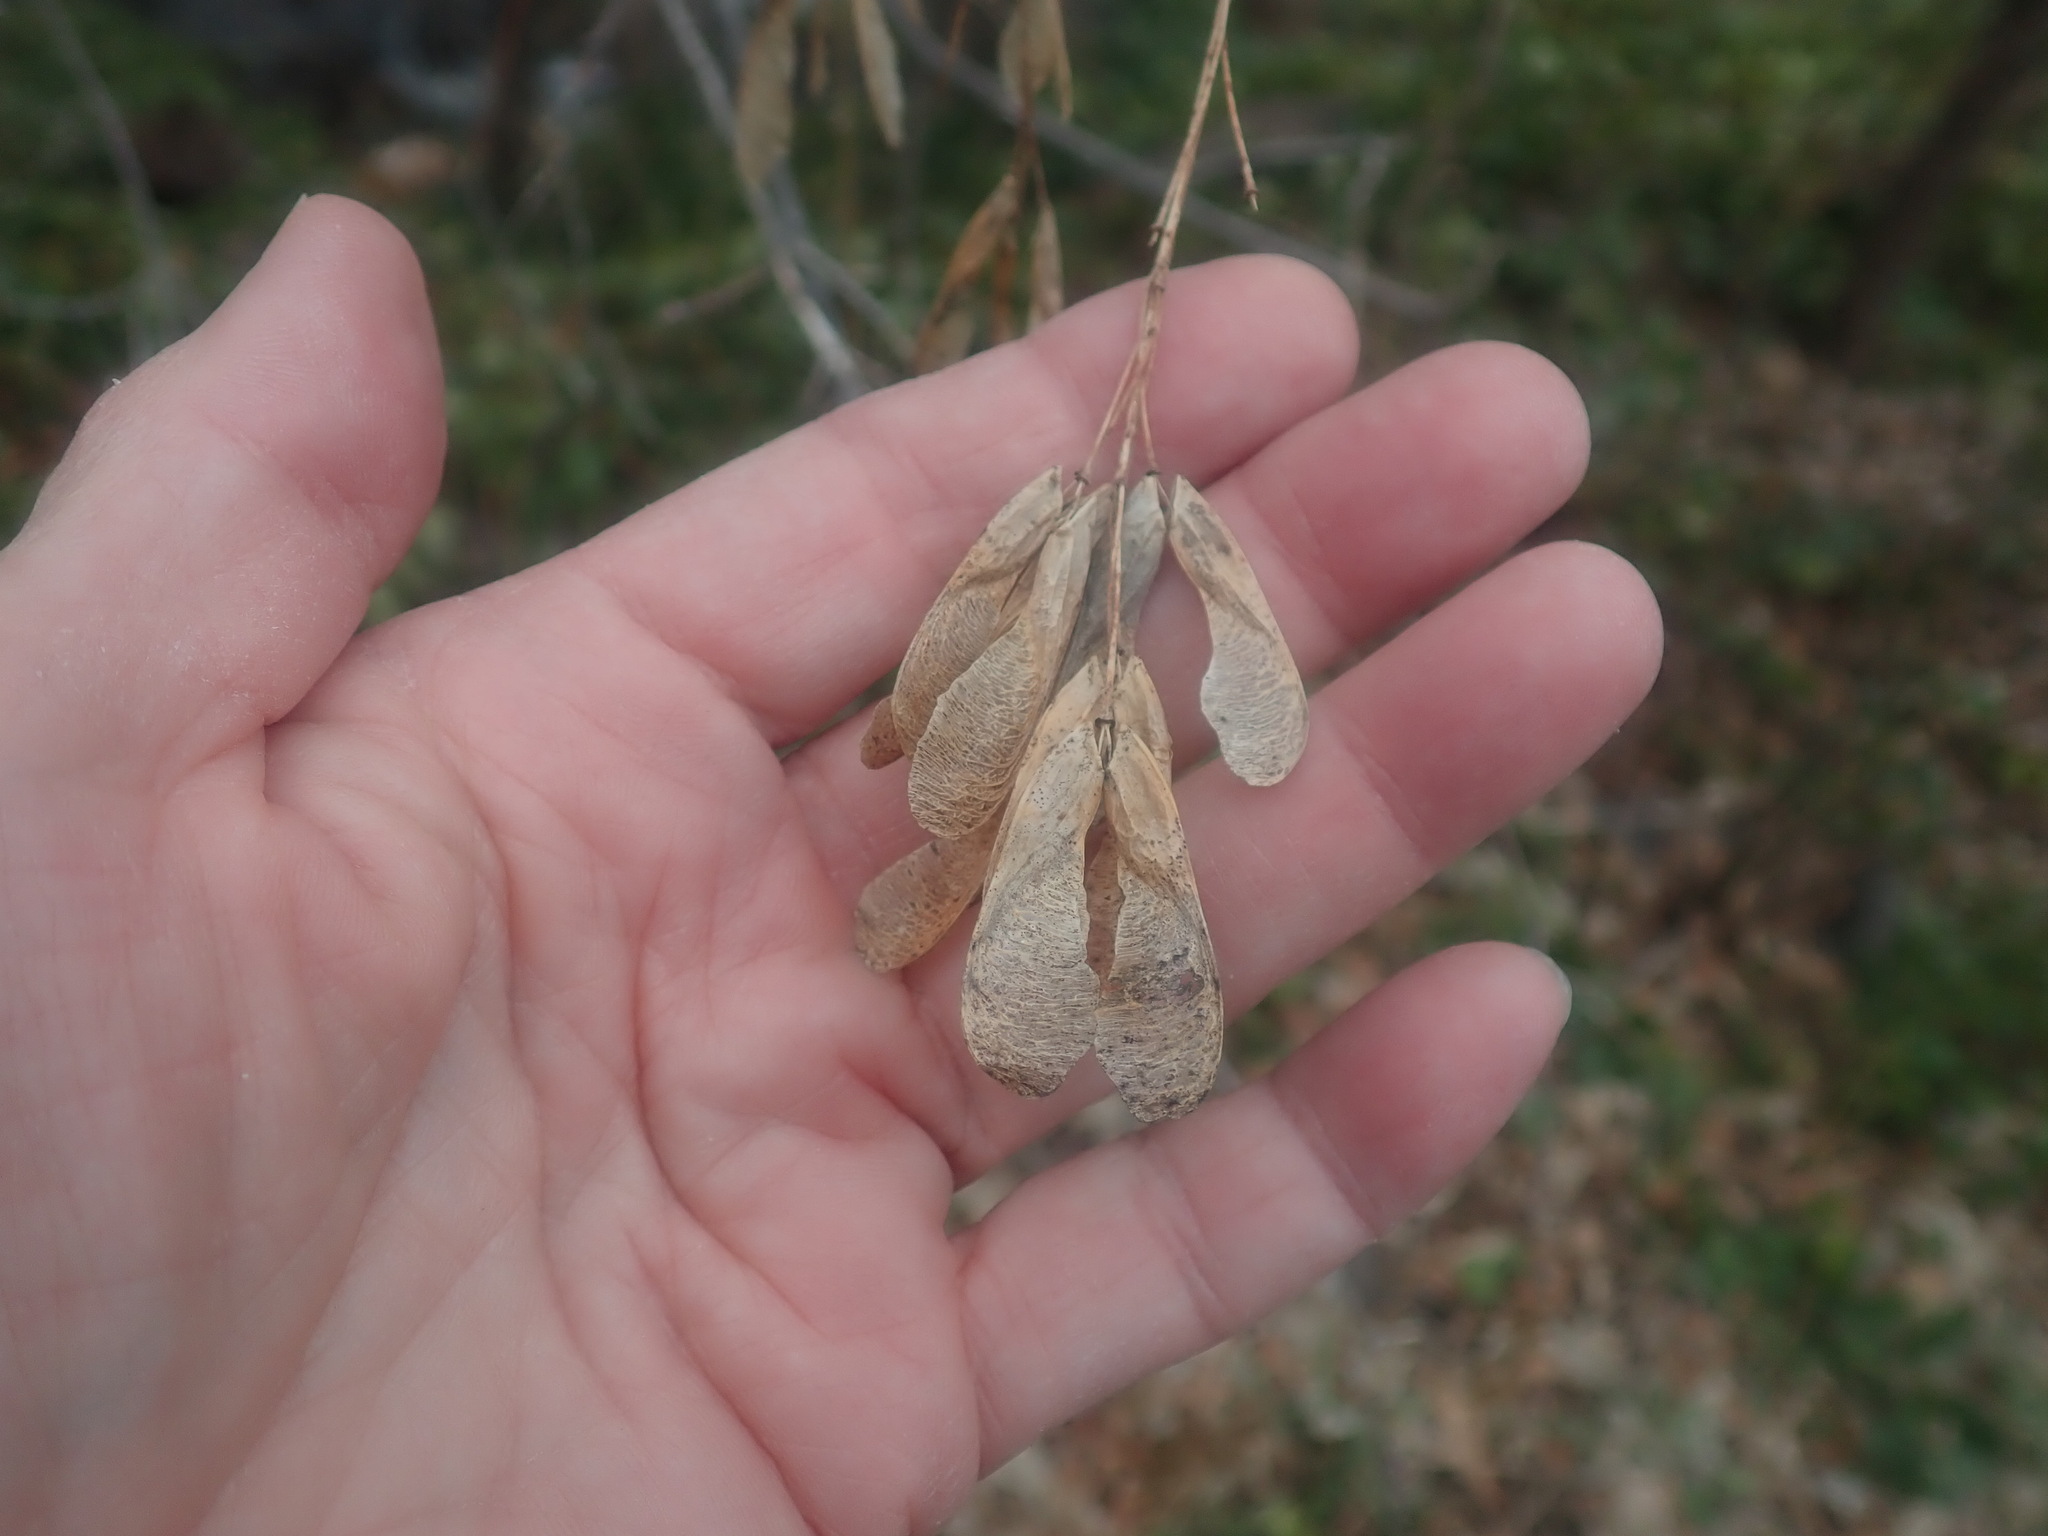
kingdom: Plantae
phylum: Tracheophyta
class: Magnoliopsida
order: Sapindales
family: Sapindaceae
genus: Acer
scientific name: Acer negundo
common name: Ashleaf maple
